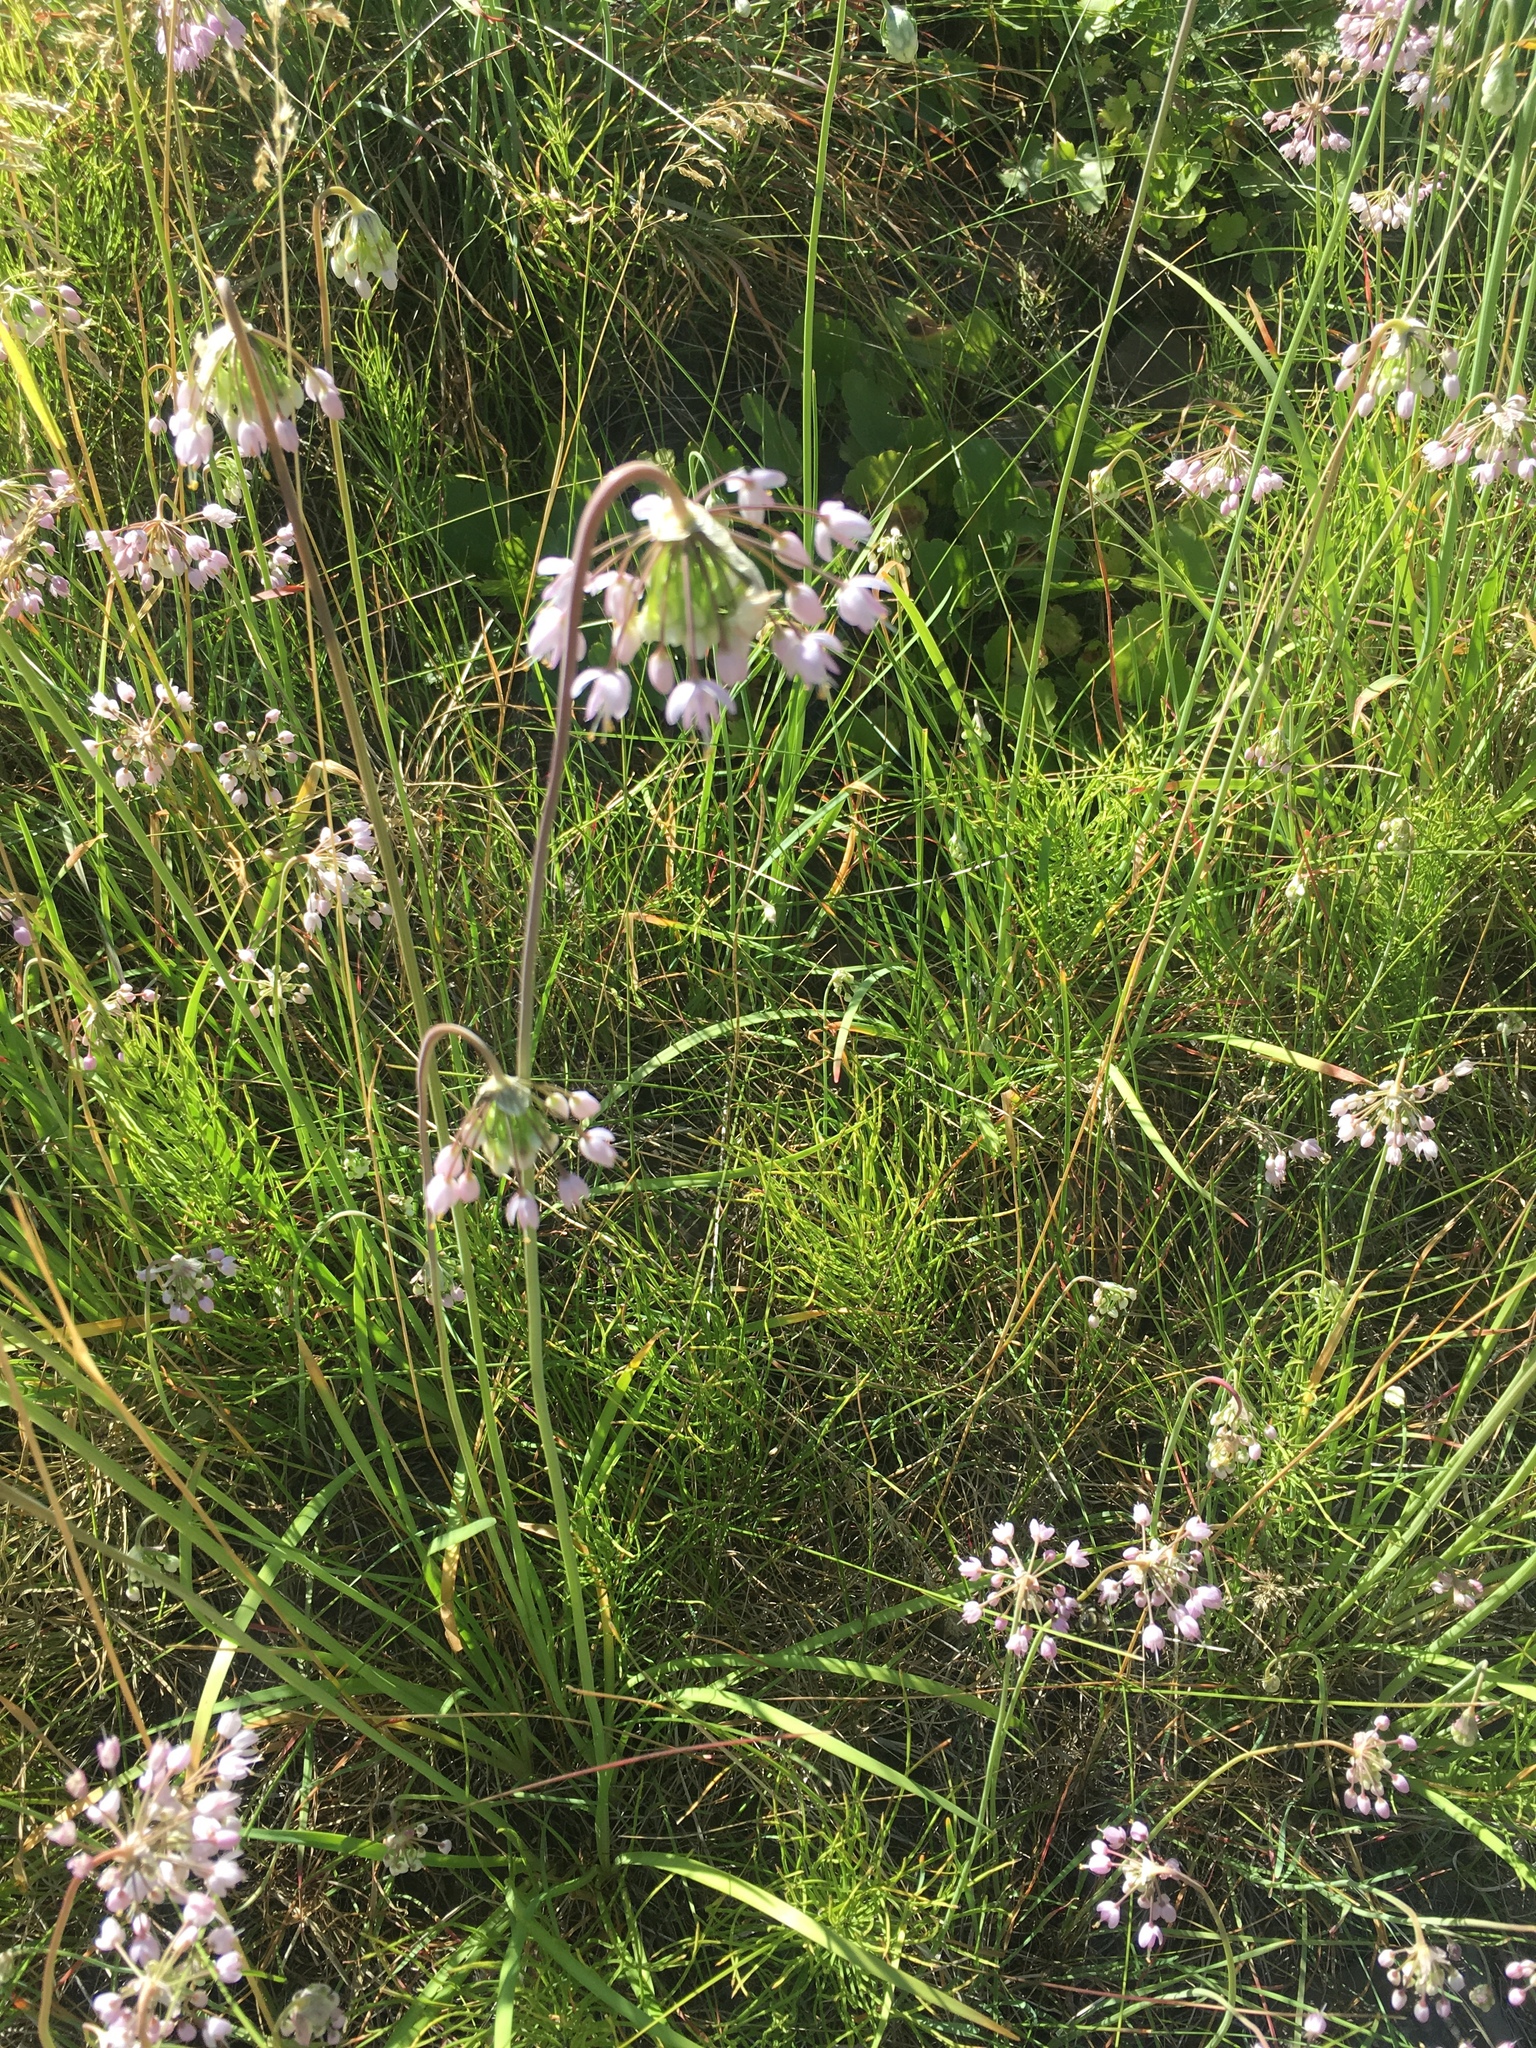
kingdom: Plantae
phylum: Tracheophyta
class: Liliopsida
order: Asparagales
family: Amaryllidaceae
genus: Allium
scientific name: Allium cernuum
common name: Nodding onion
